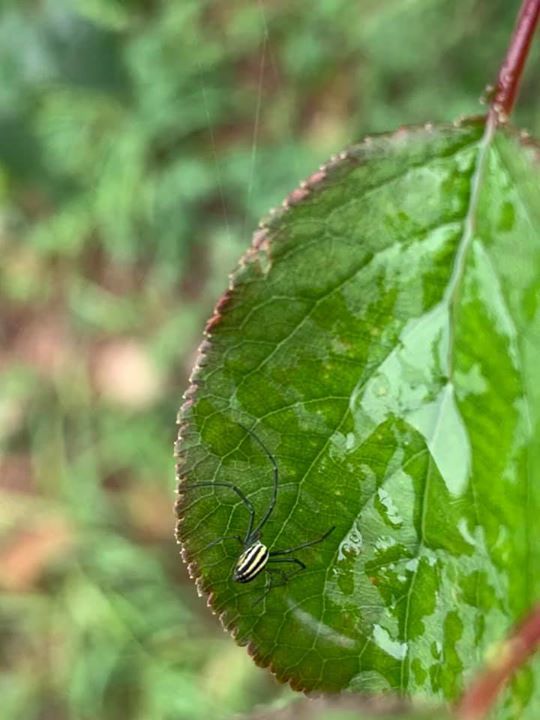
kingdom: Animalia
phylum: Arthropoda
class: Arachnida
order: Araneae
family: Araneidae
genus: Nephila
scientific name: Nephila pilipes
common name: Giant golden orb weaver
